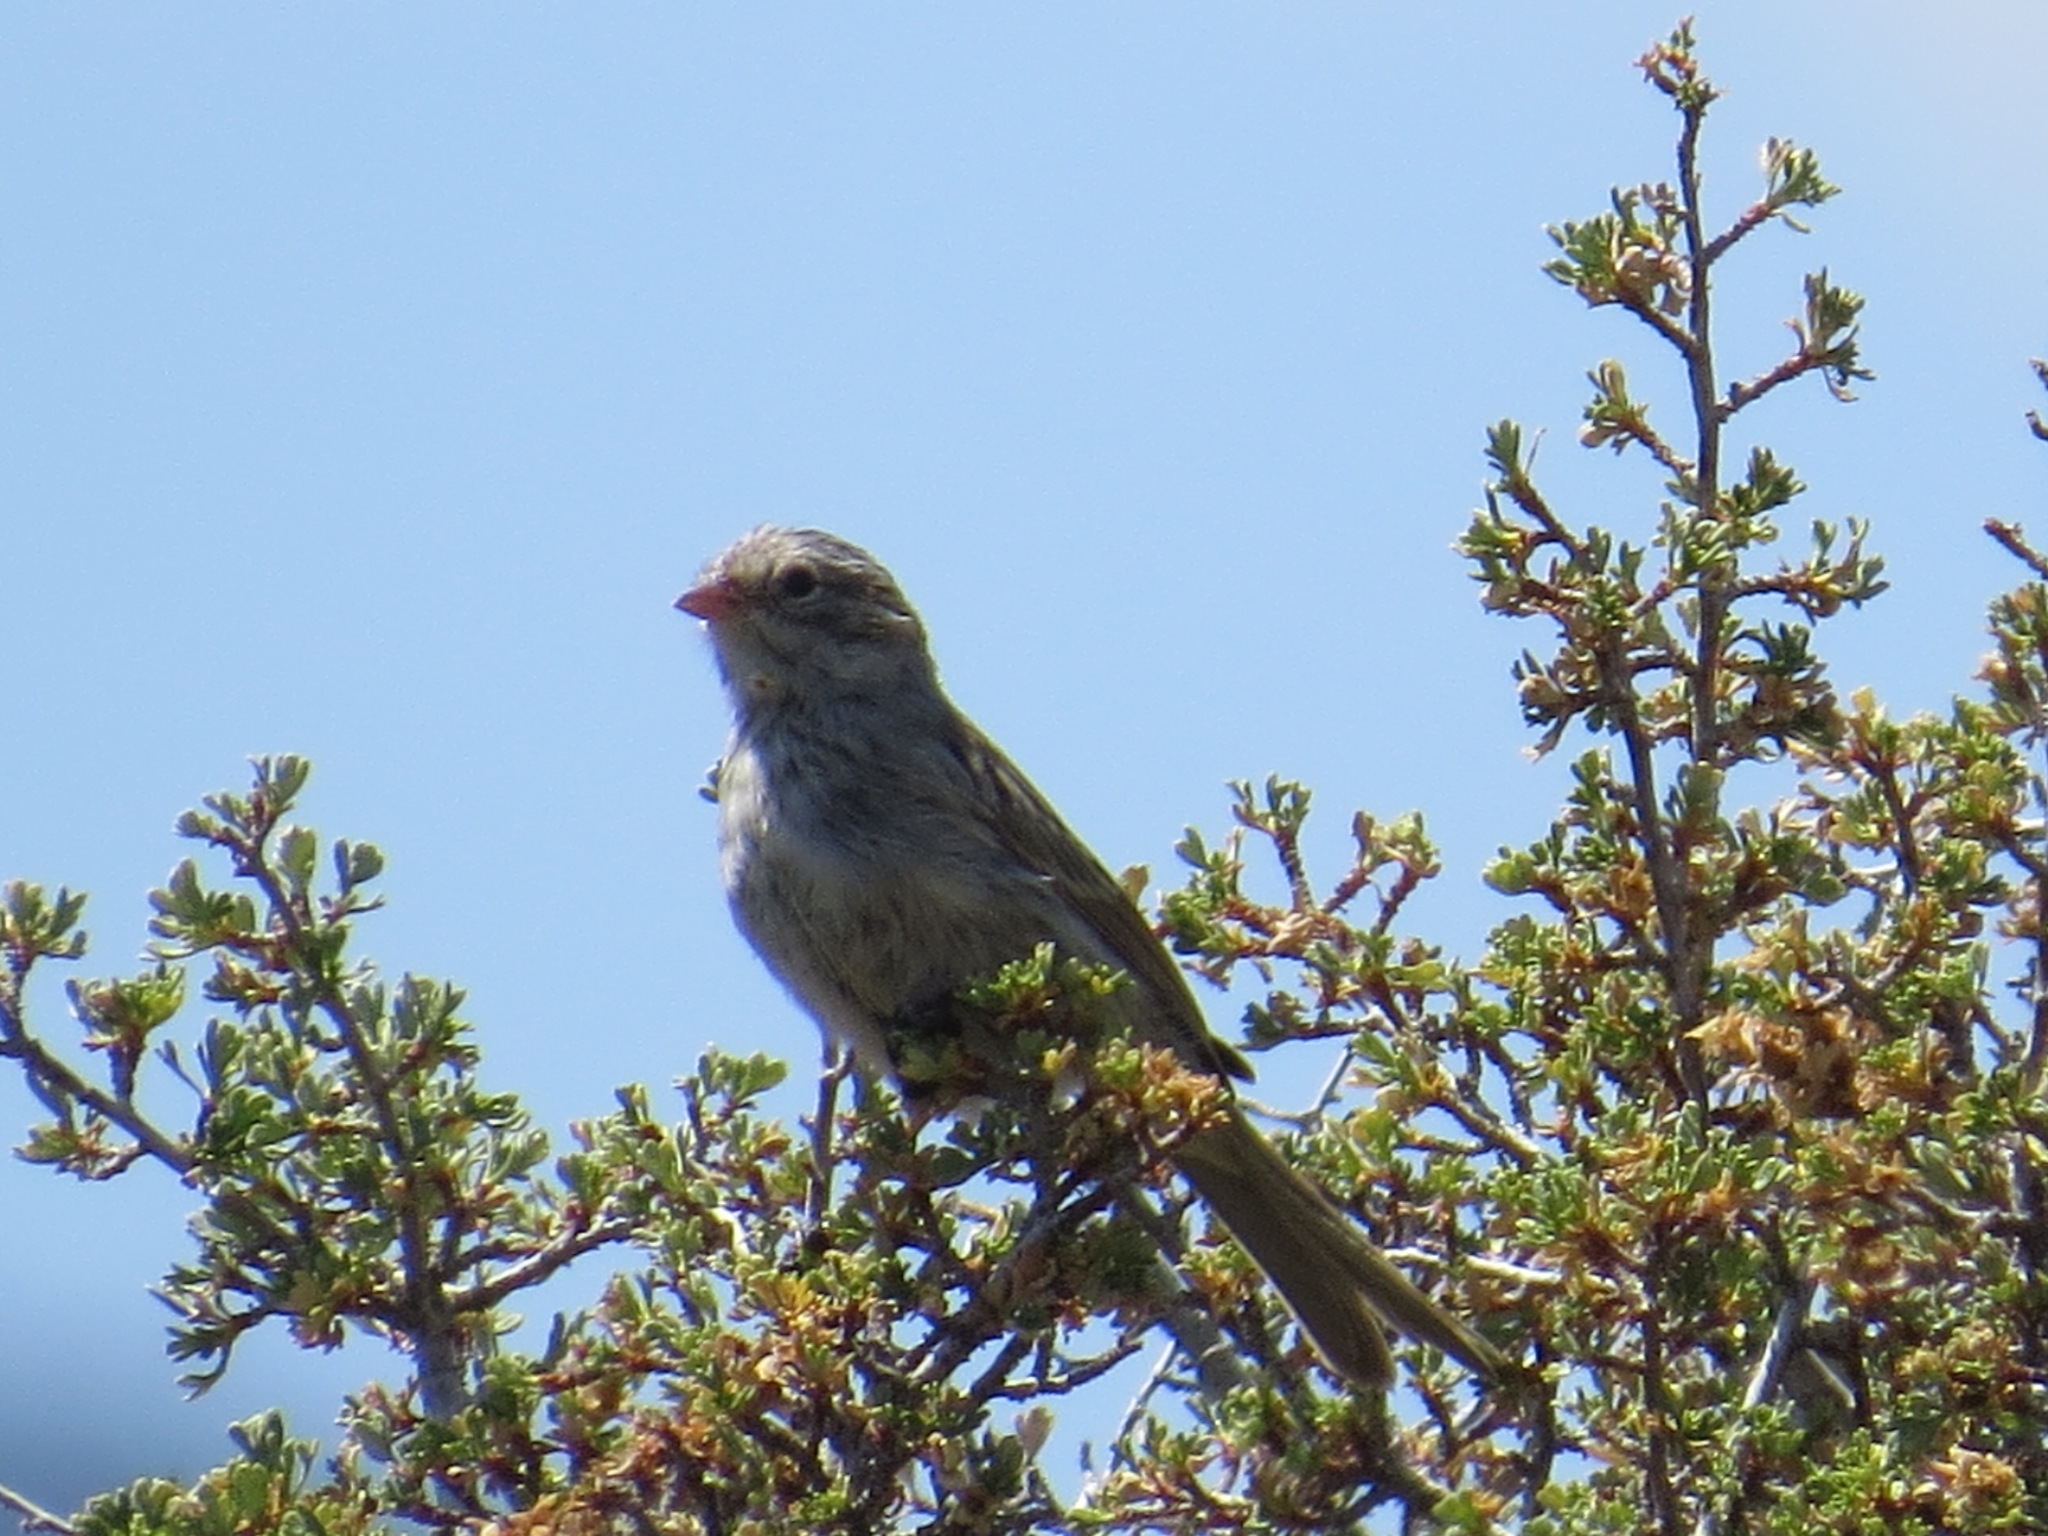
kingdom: Animalia
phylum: Chordata
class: Aves
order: Passeriformes
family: Passerellidae
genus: Spizella
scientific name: Spizella breweri
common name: Brewer's sparrow
